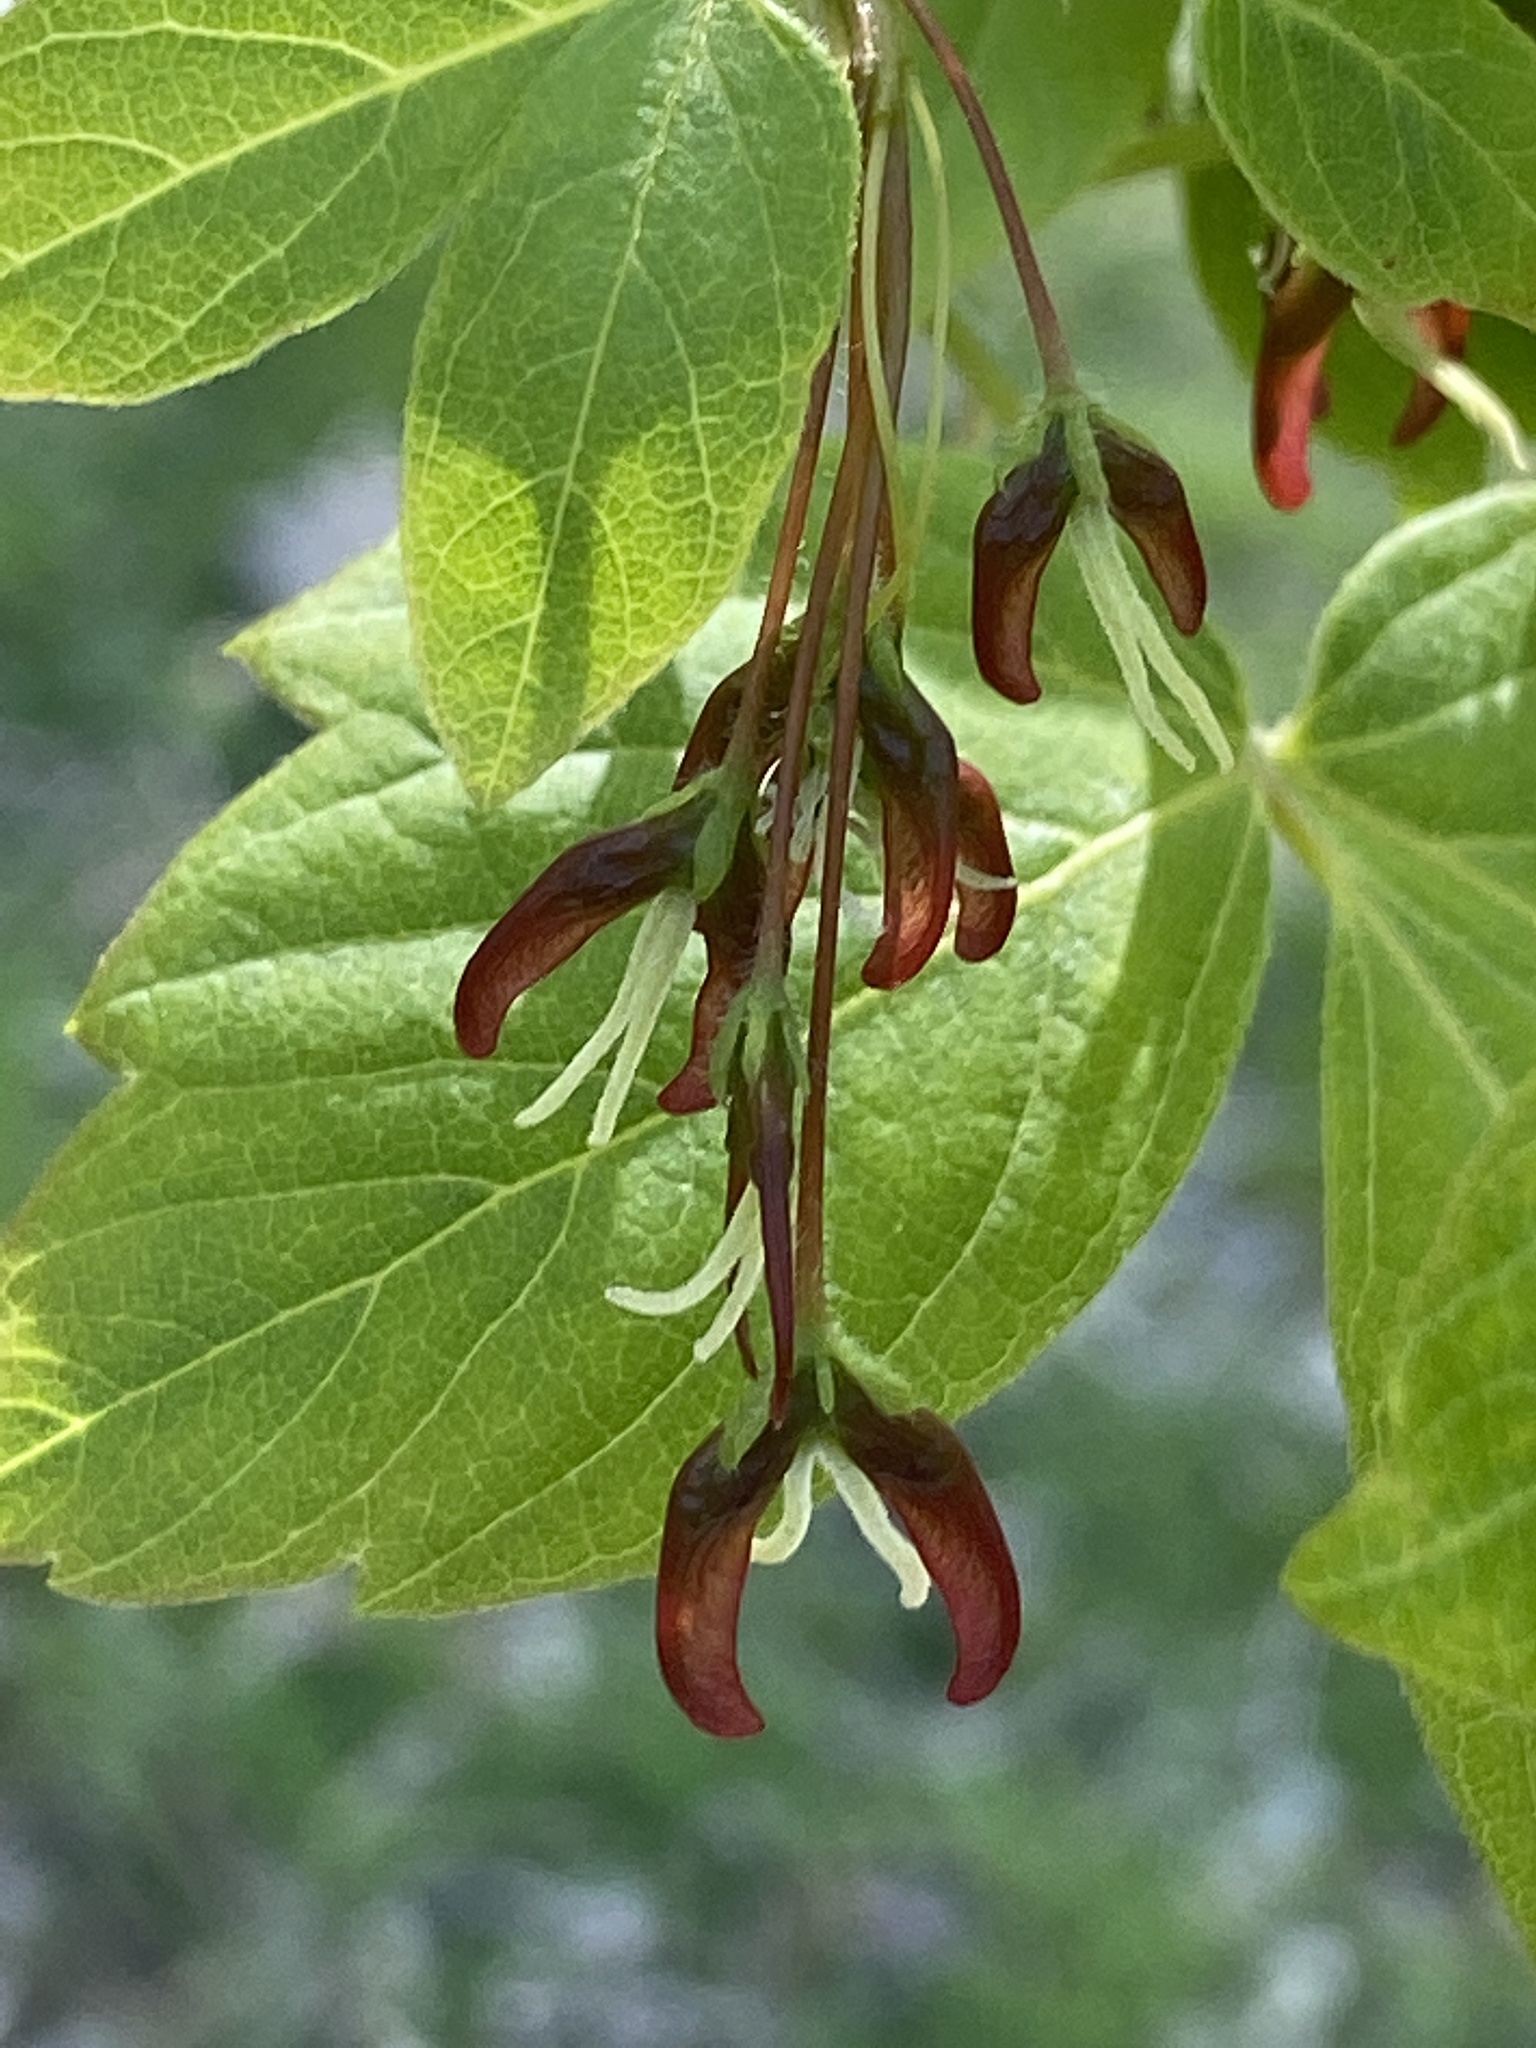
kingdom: Plantae
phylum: Tracheophyta
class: Magnoliopsida
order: Sapindales
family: Sapindaceae
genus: Acer
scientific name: Acer negundo
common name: Ashleaf maple
